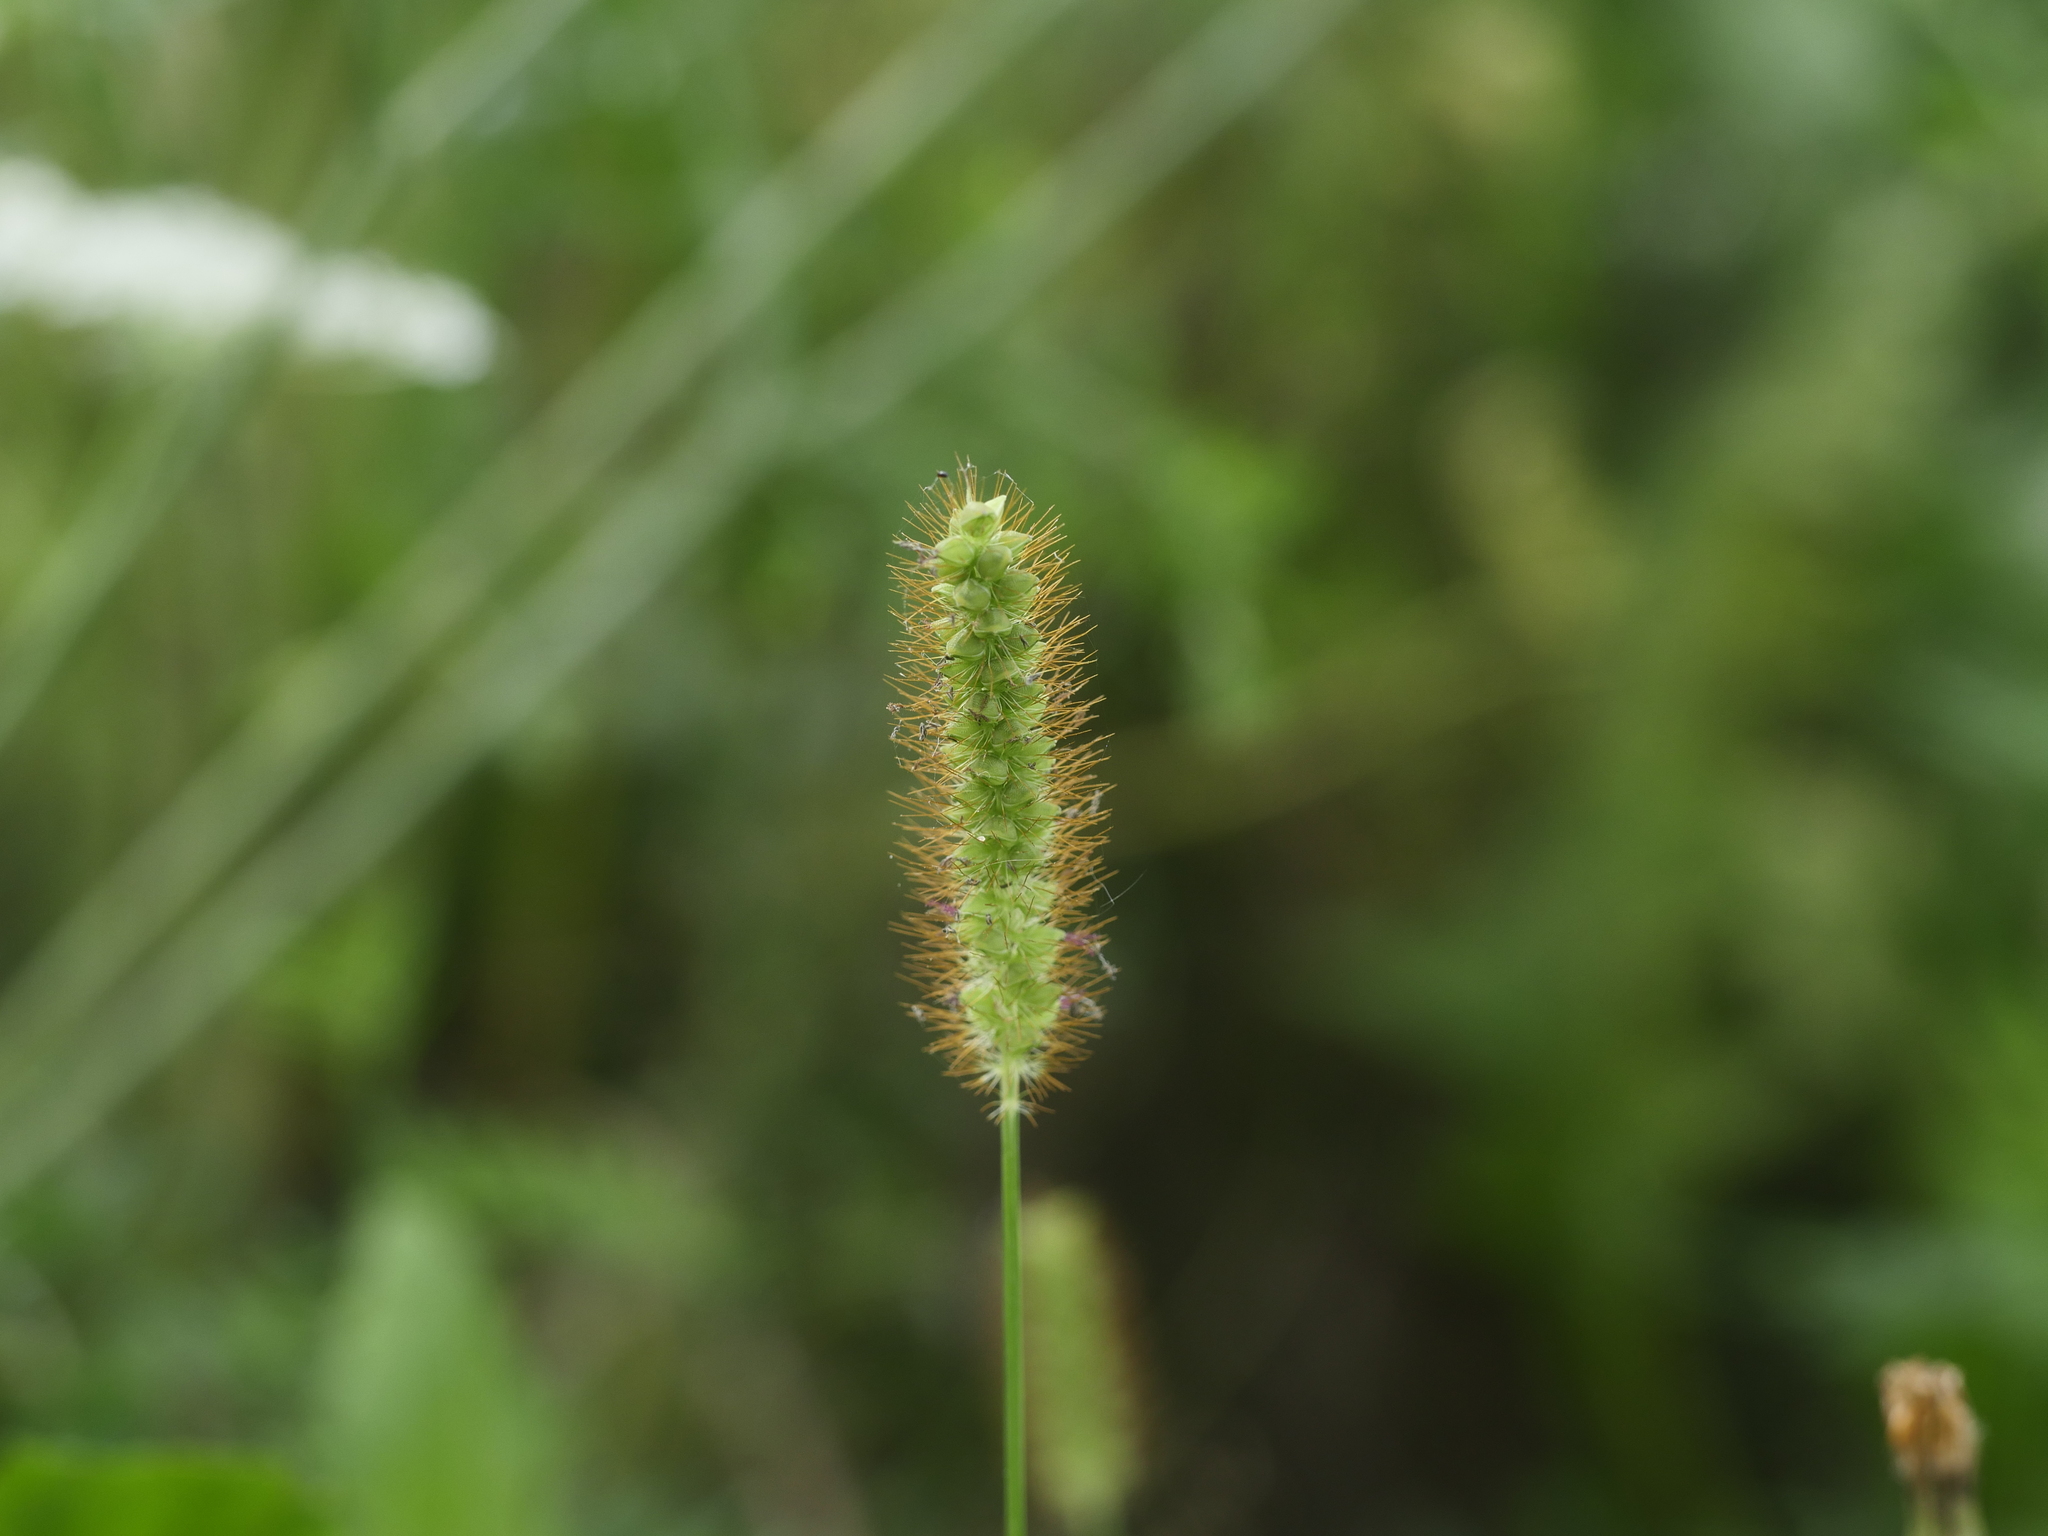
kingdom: Plantae
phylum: Tracheophyta
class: Liliopsida
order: Poales
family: Poaceae
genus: Setaria
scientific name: Setaria pumila
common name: Yellow bristle-grass
